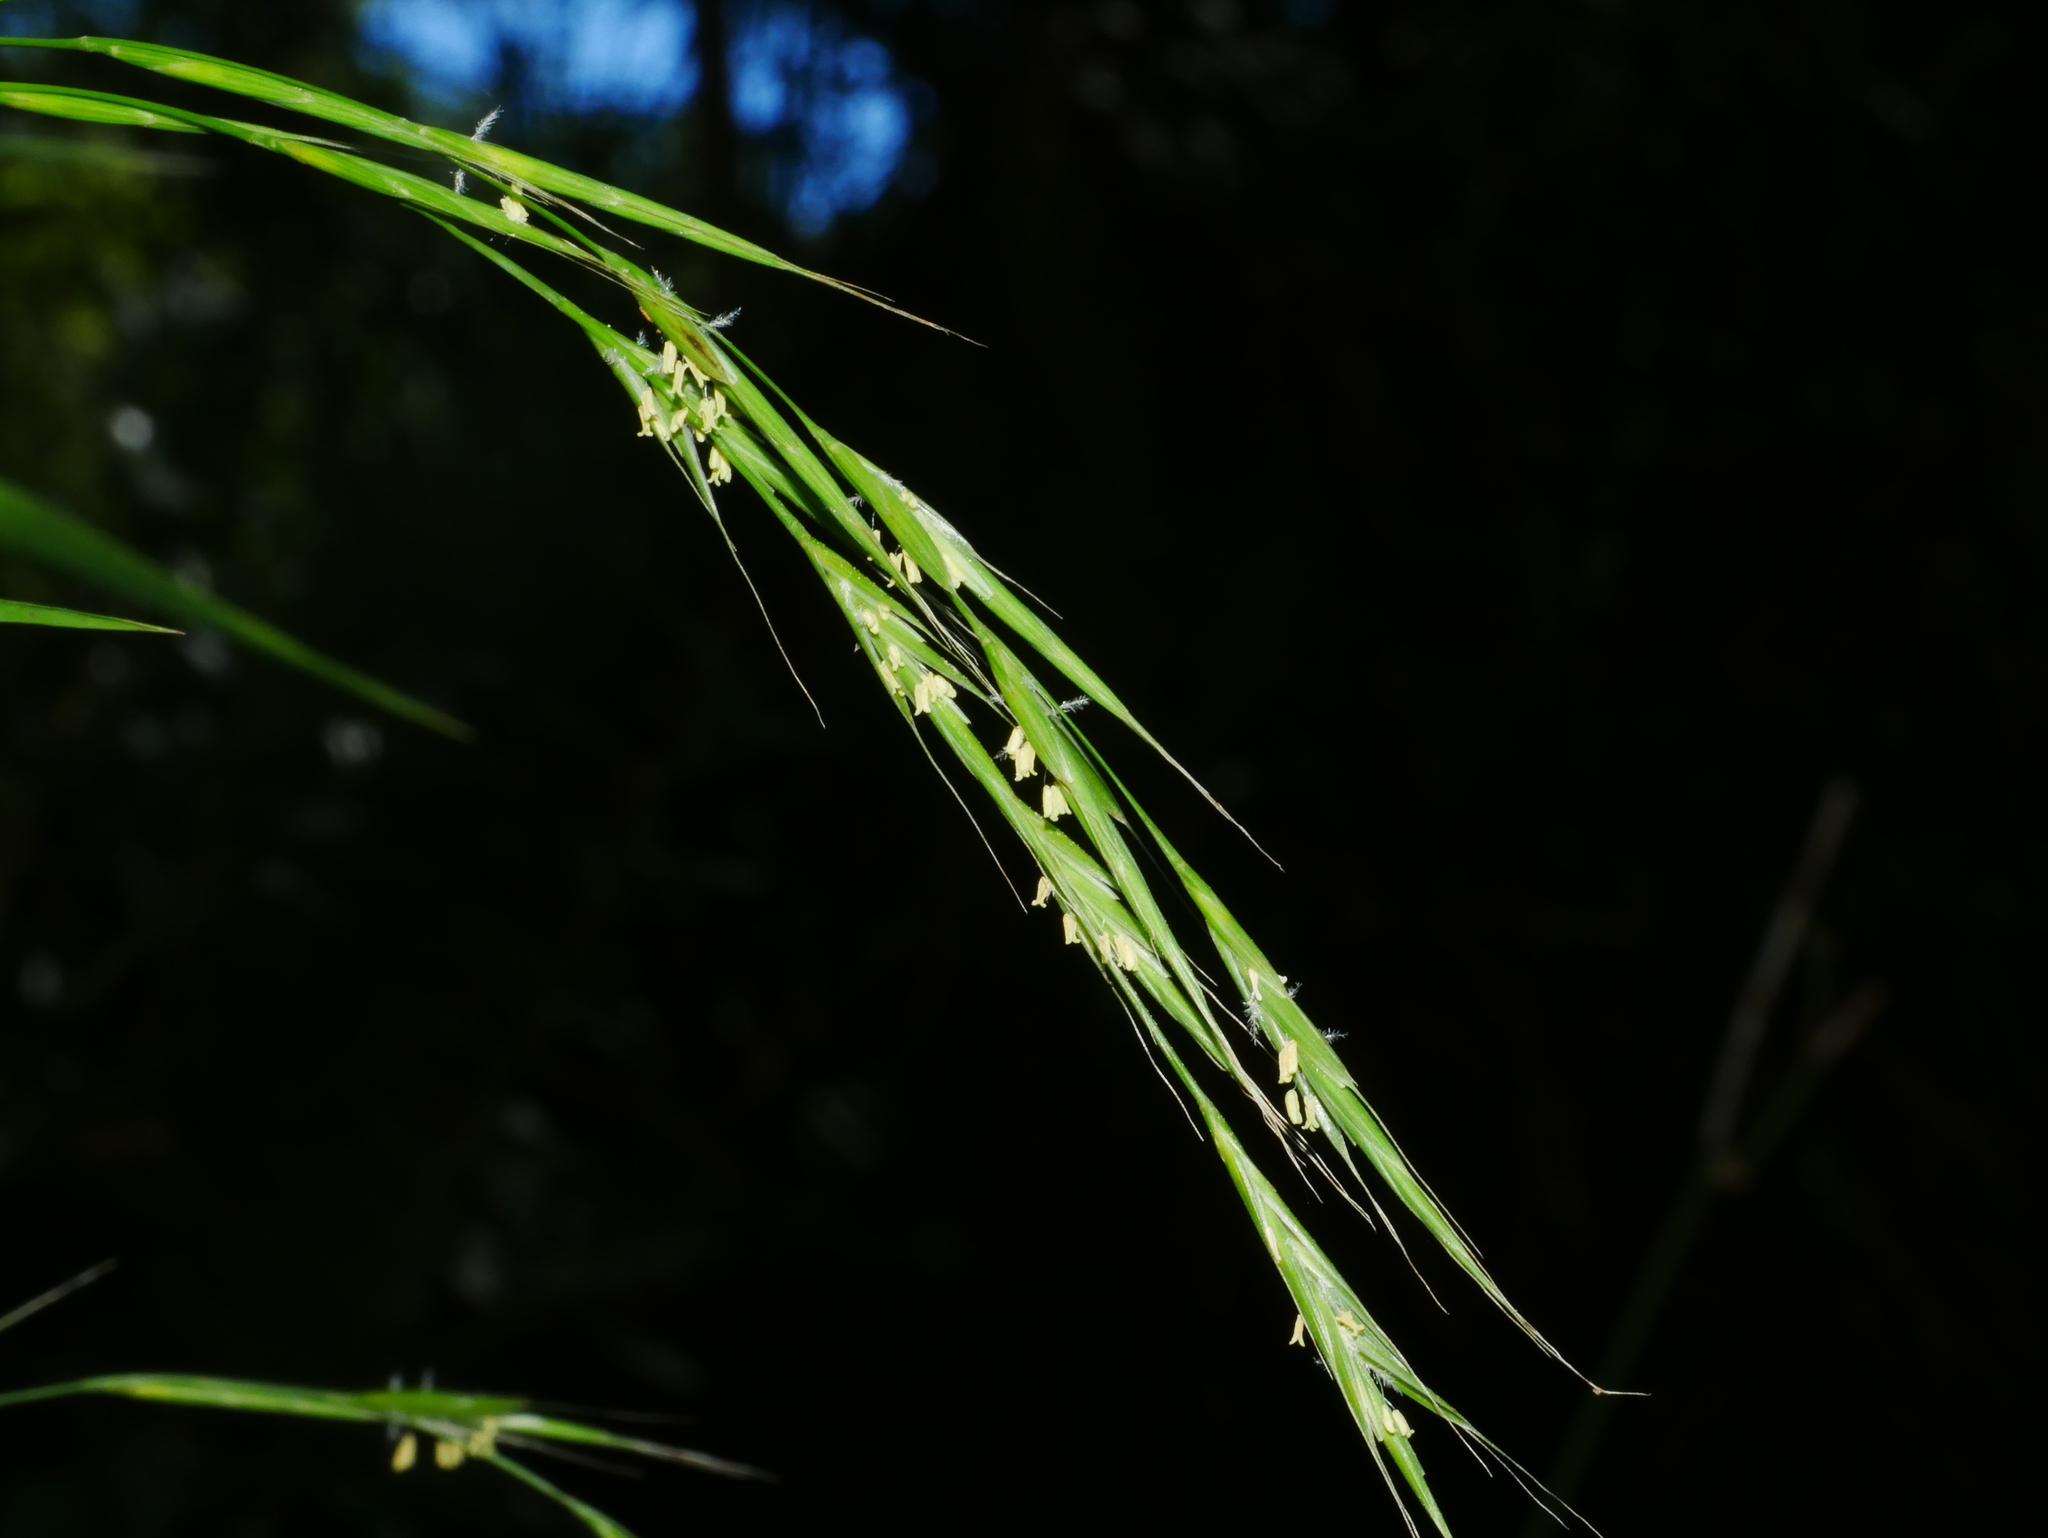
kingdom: Plantae
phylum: Tracheophyta
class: Liliopsida
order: Poales
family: Poaceae
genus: Brachypodium
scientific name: Brachypodium sylvaticum
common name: False-brome
